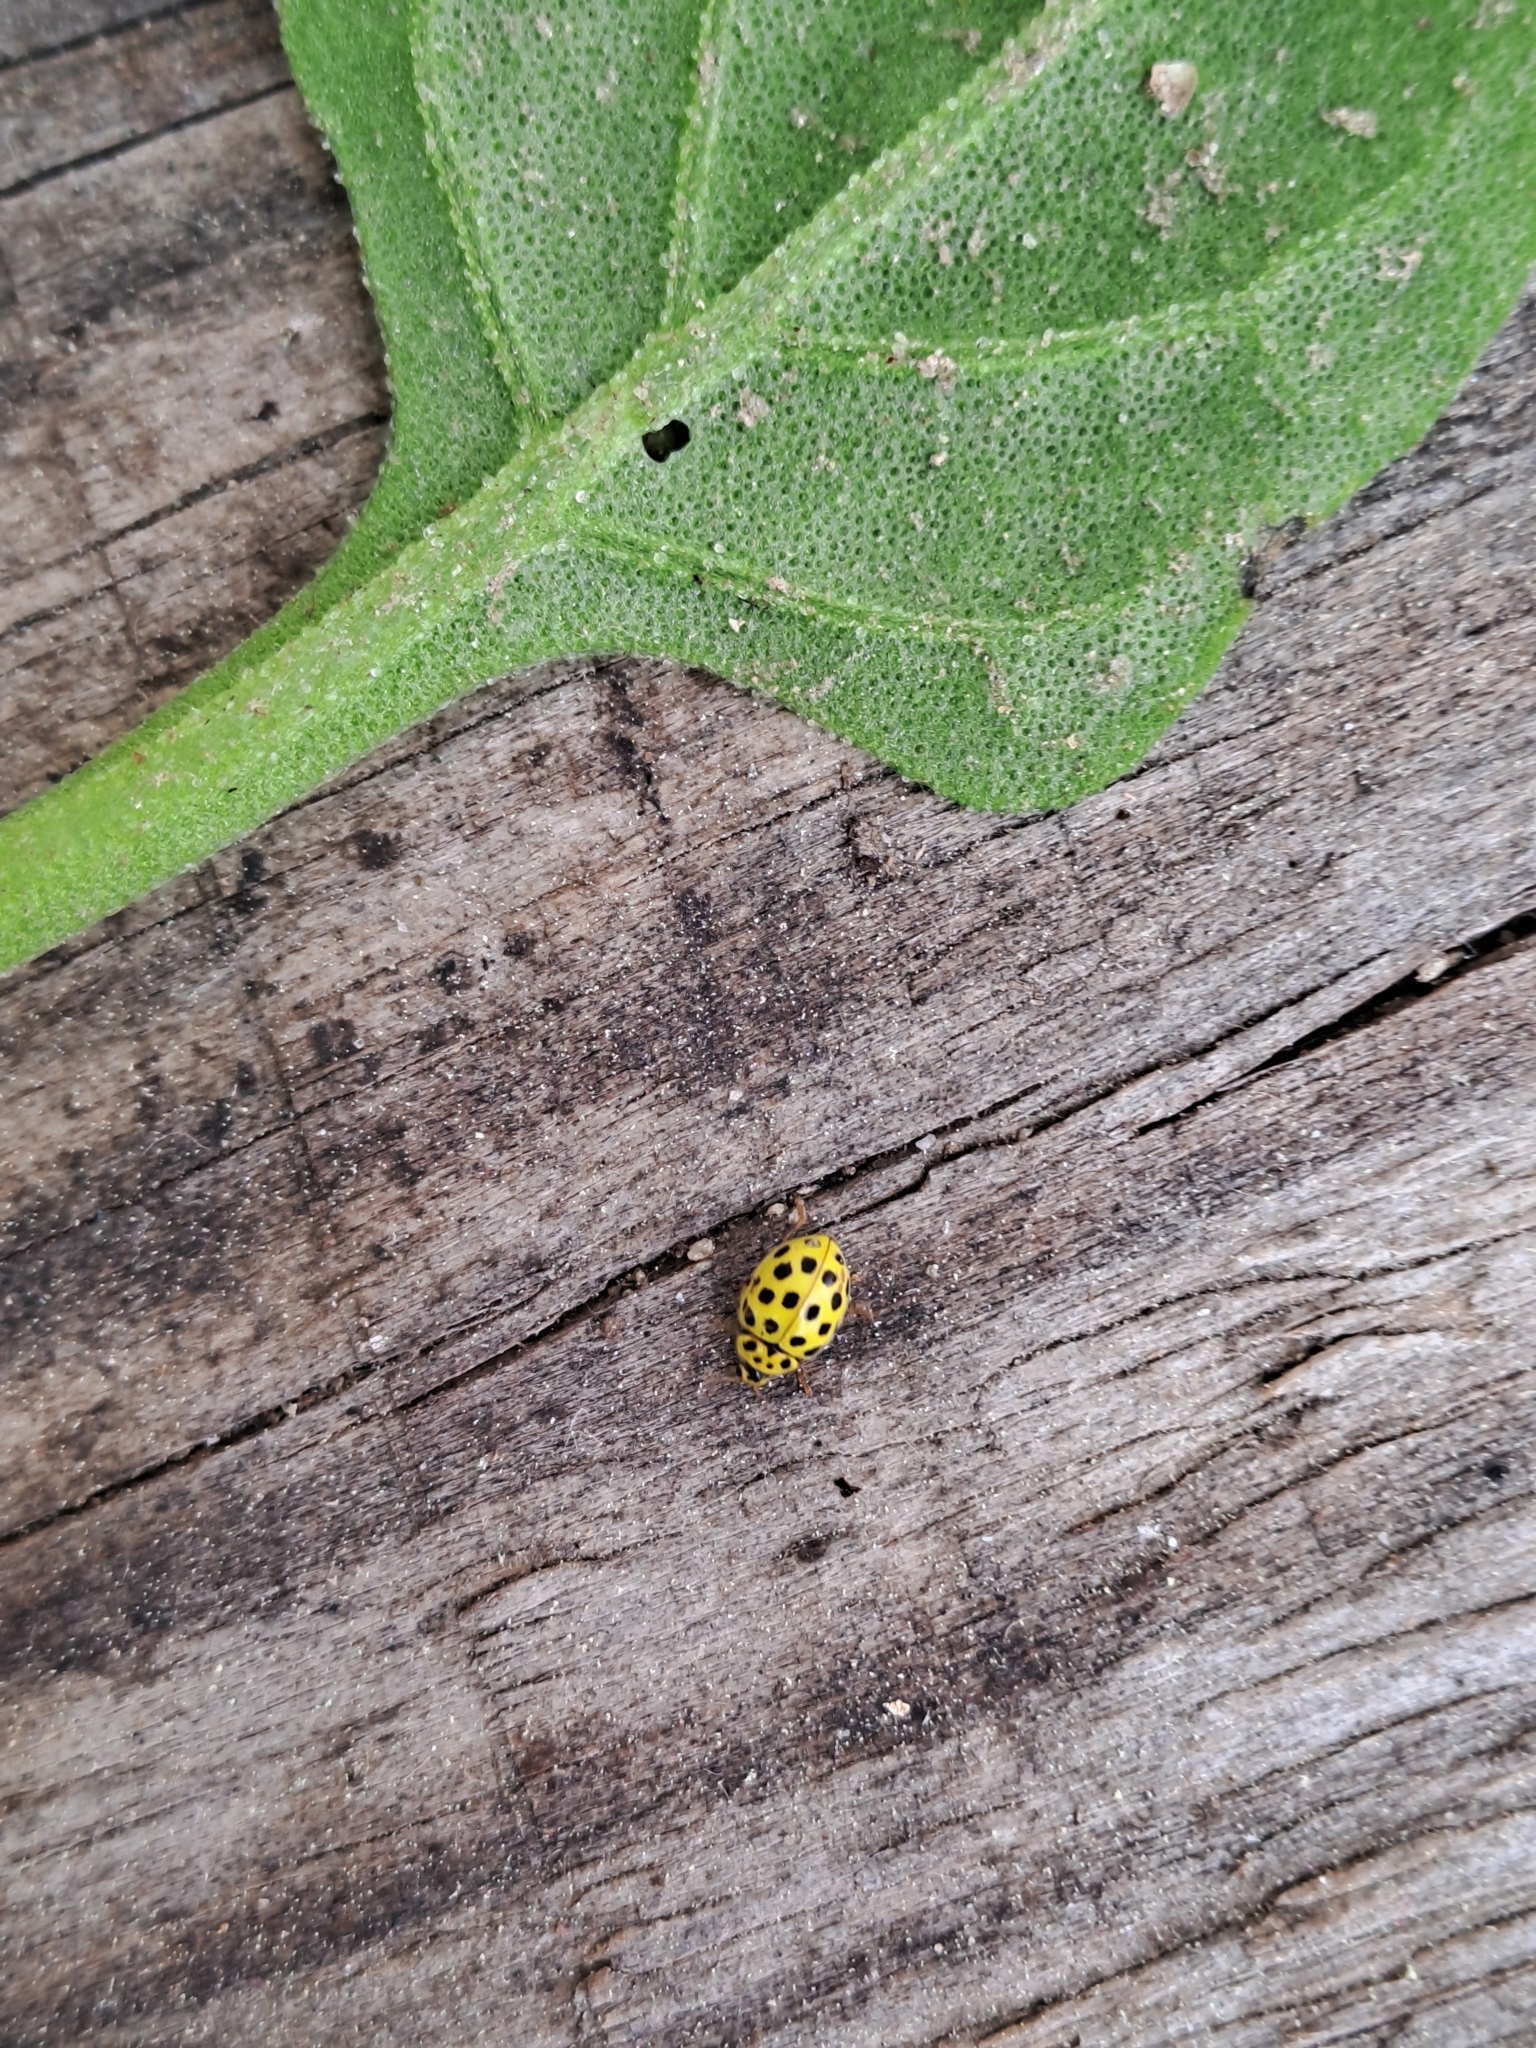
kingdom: Animalia
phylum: Arthropoda
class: Insecta
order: Coleoptera
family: Coccinellidae
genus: Psyllobora
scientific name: Psyllobora vigintiduopunctata
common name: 22-spot ladybird
